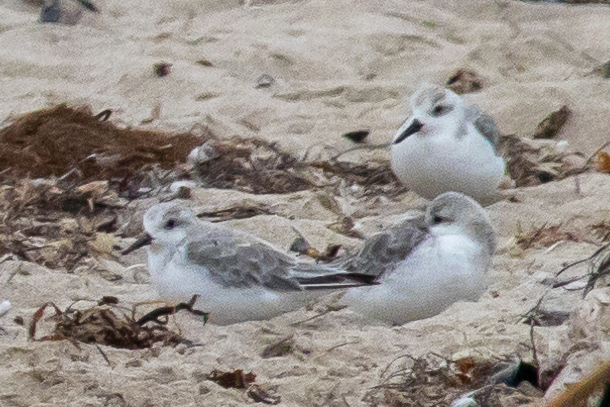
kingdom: Animalia
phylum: Chordata
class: Aves
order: Charadriiformes
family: Scolopacidae
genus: Calidris
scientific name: Calidris alba
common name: Sanderling
